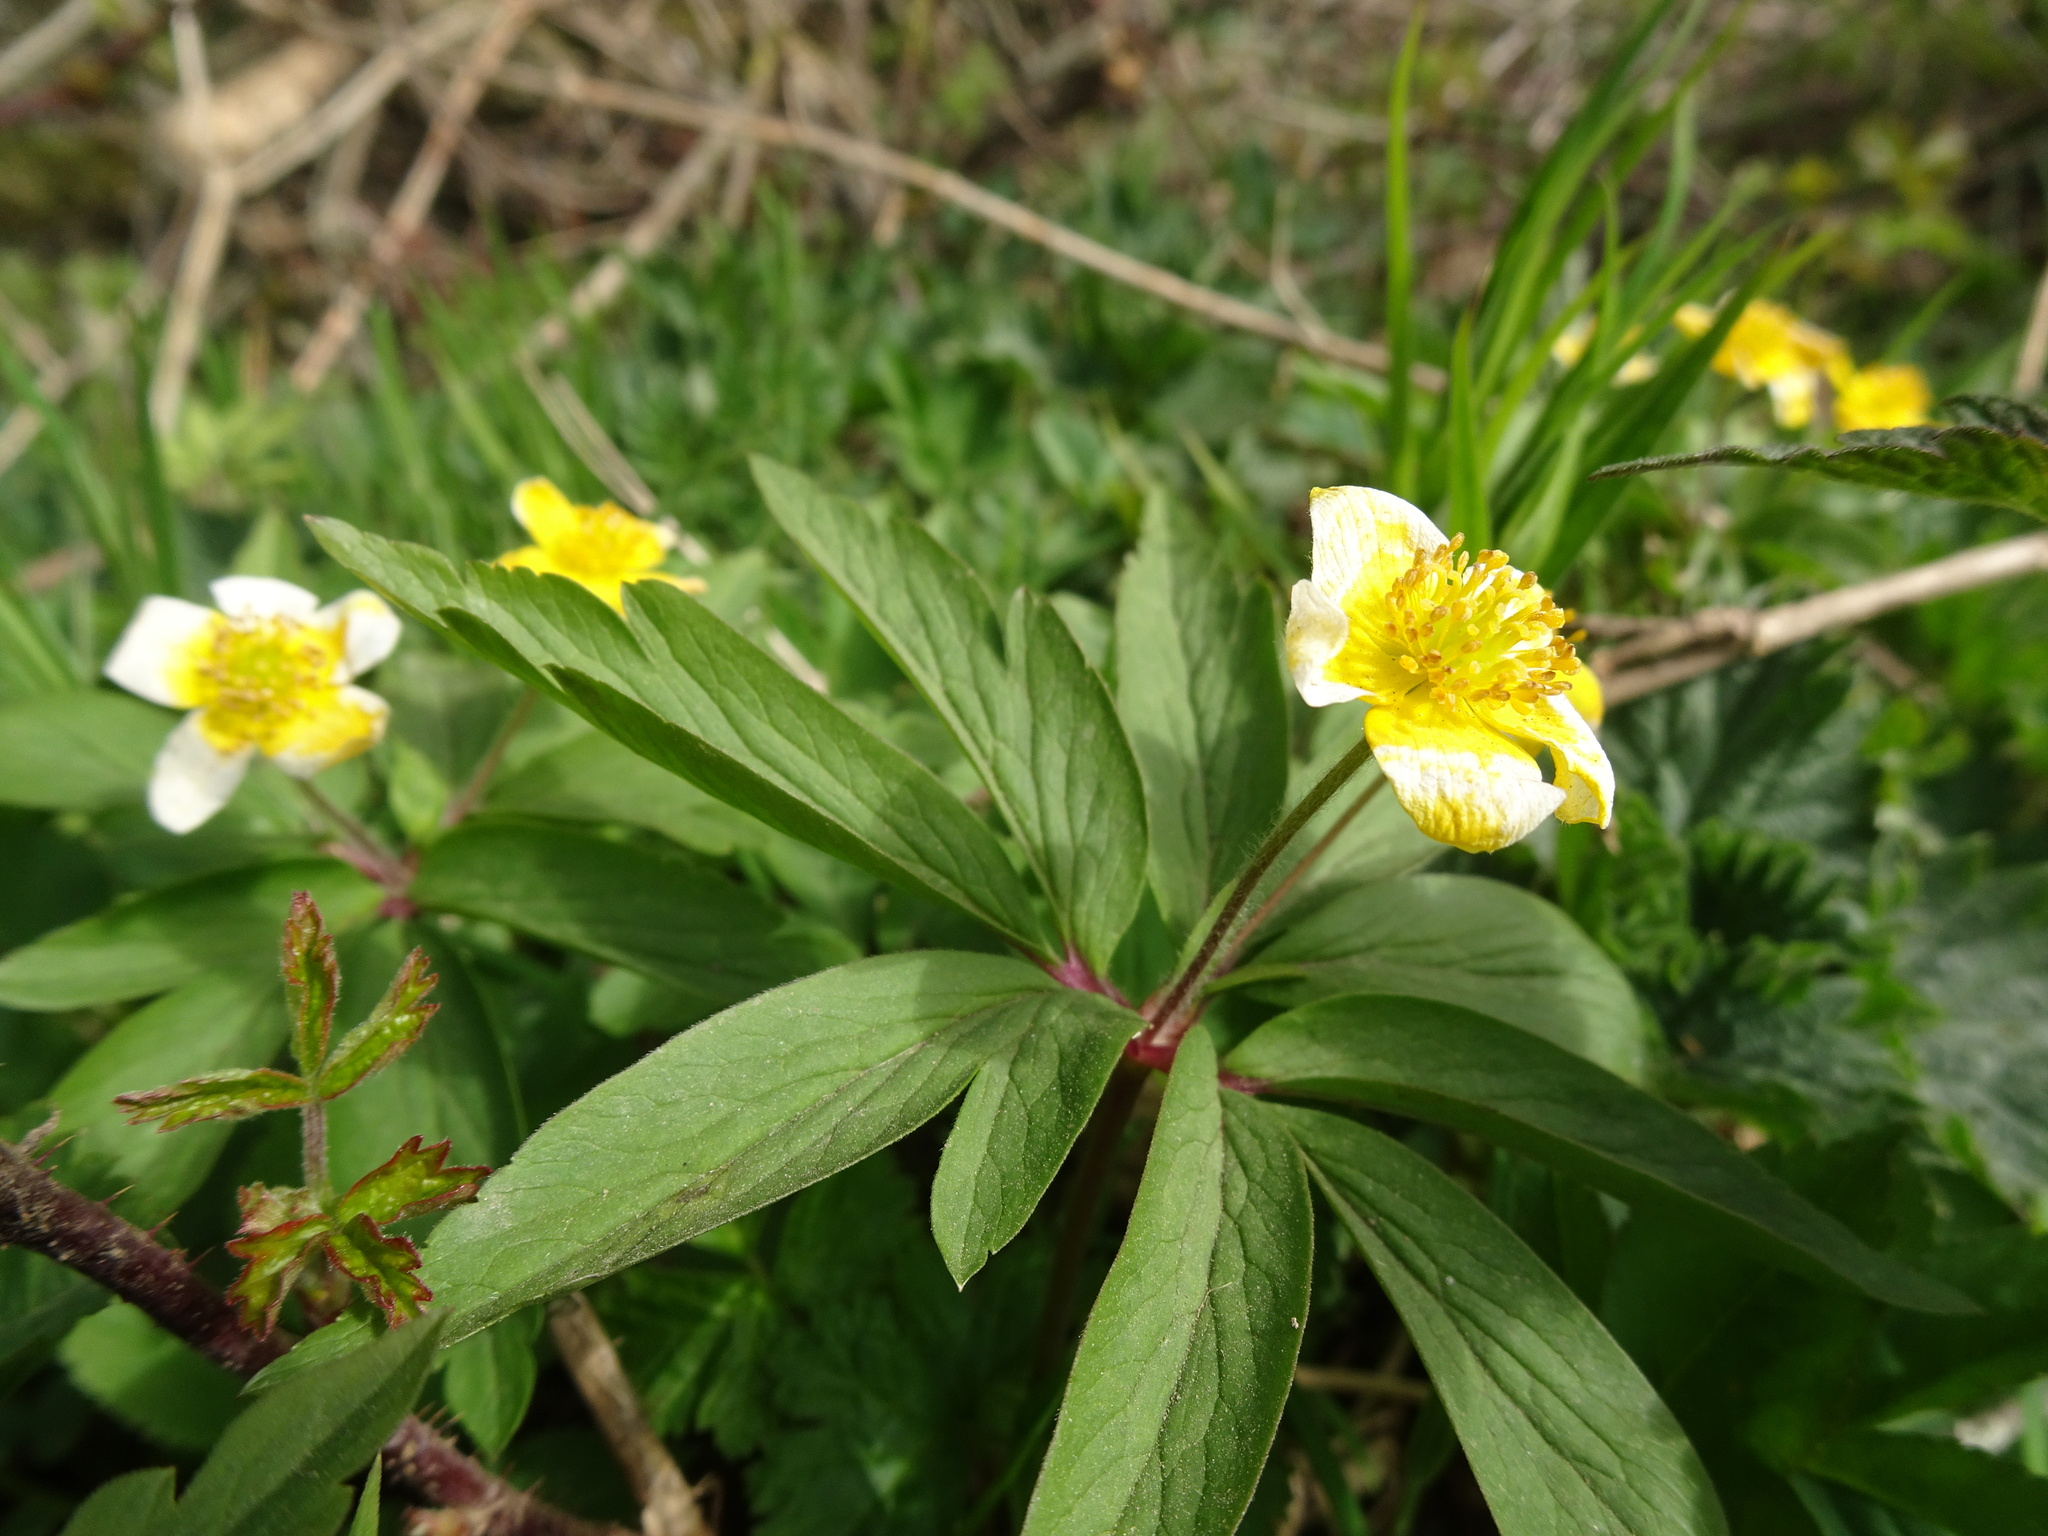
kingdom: Plantae
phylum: Tracheophyta
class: Magnoliopsida
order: Ranunculales
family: Ranunculaceae
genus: Anemone
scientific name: Anemone ranunculoides
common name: Yellow anemone
